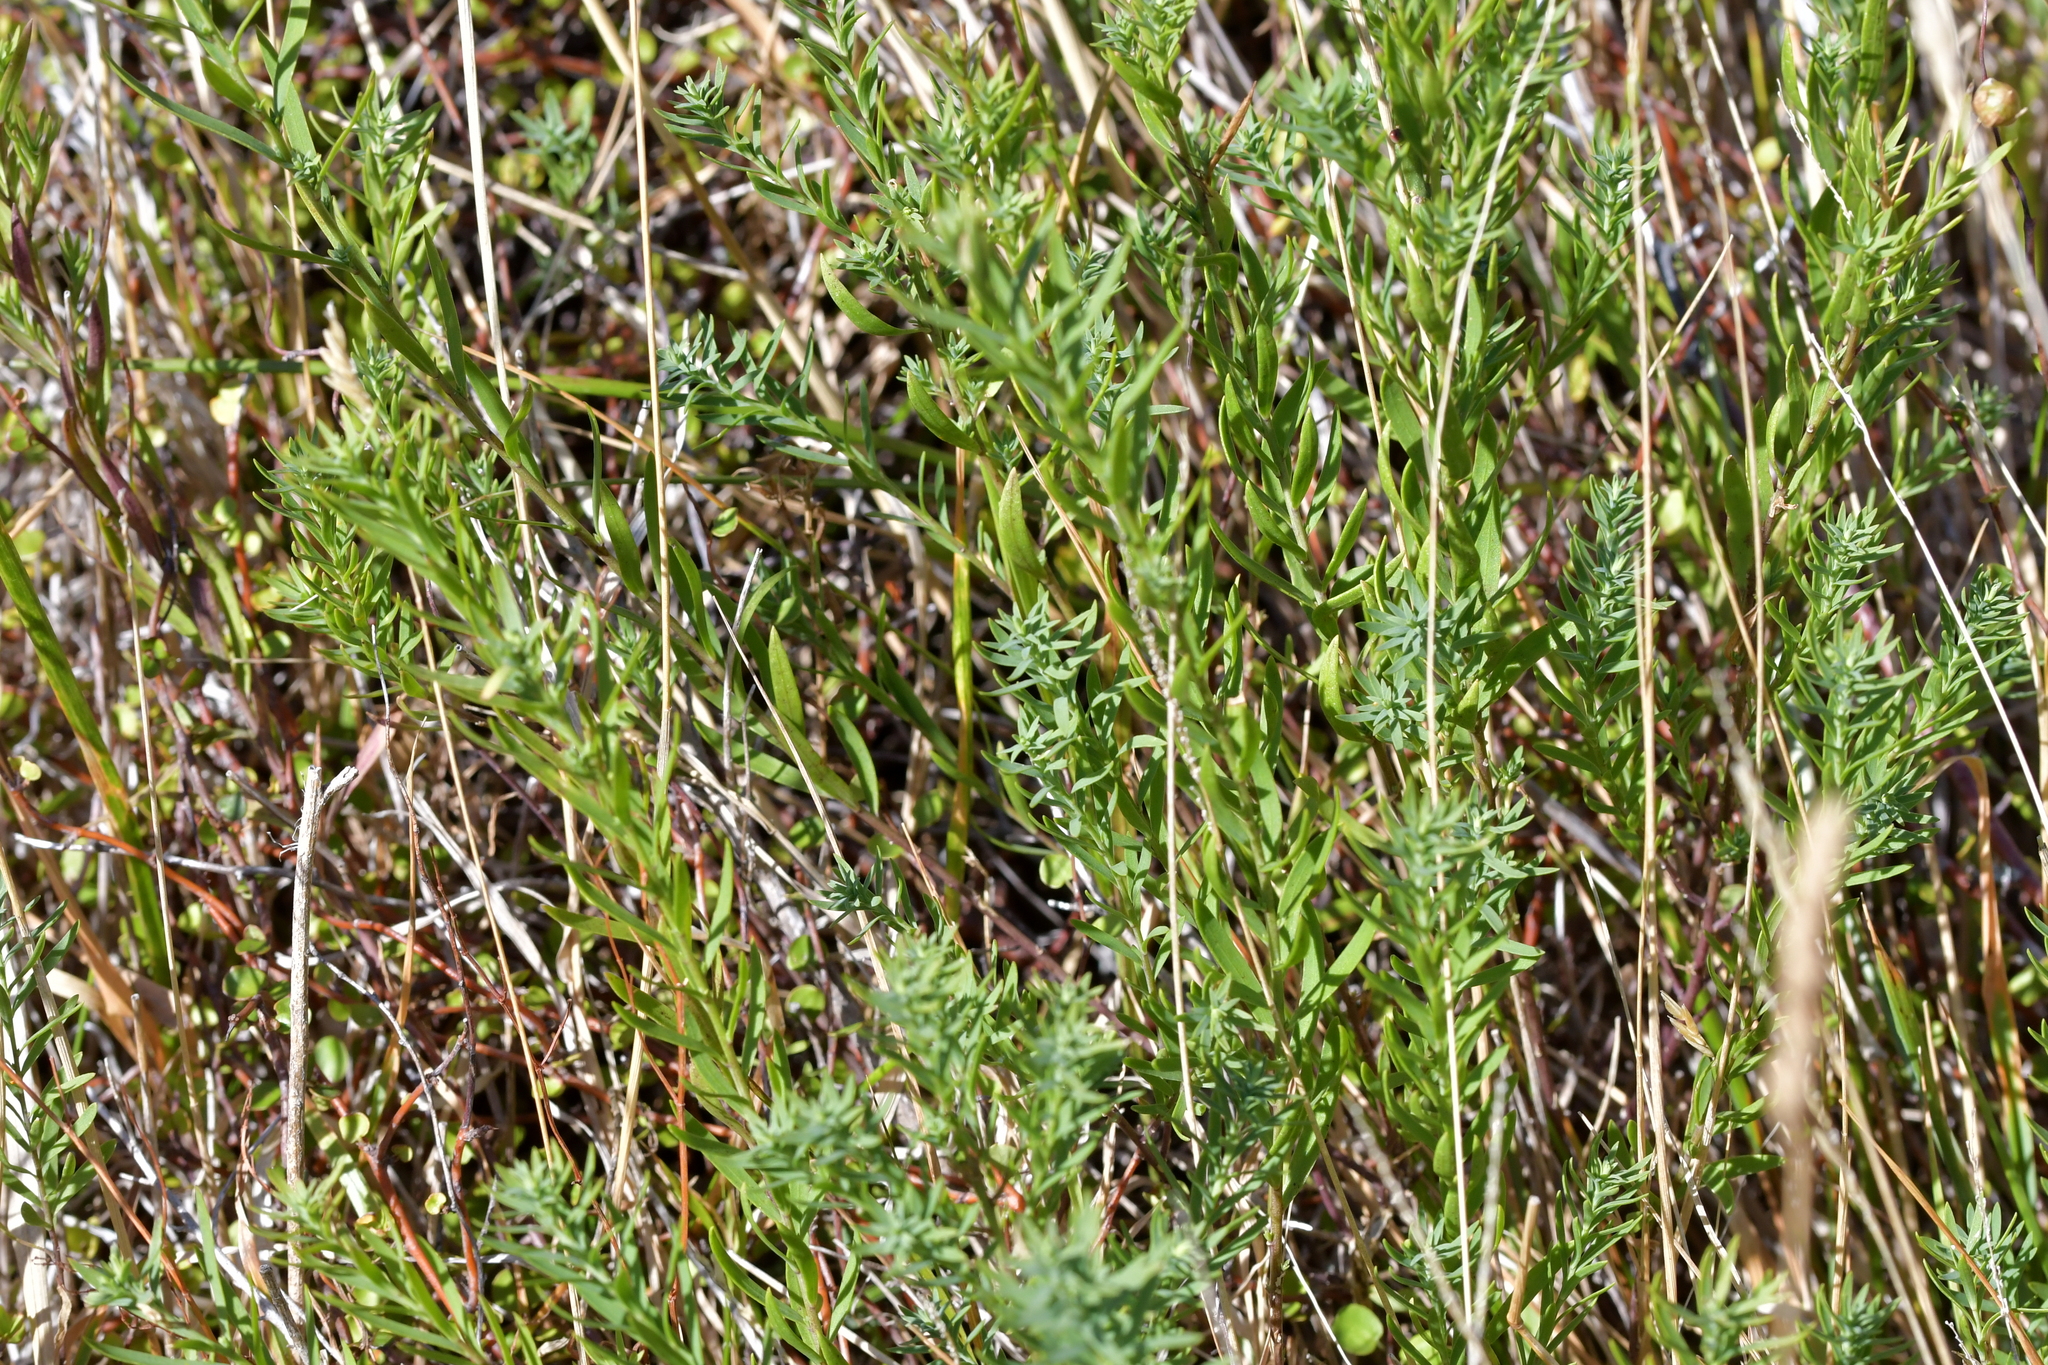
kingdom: Plantae
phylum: Tracheophyta
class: Magnoliopsida
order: Malpighiales
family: Linaceae
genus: Linum
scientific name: Linum monogynum
